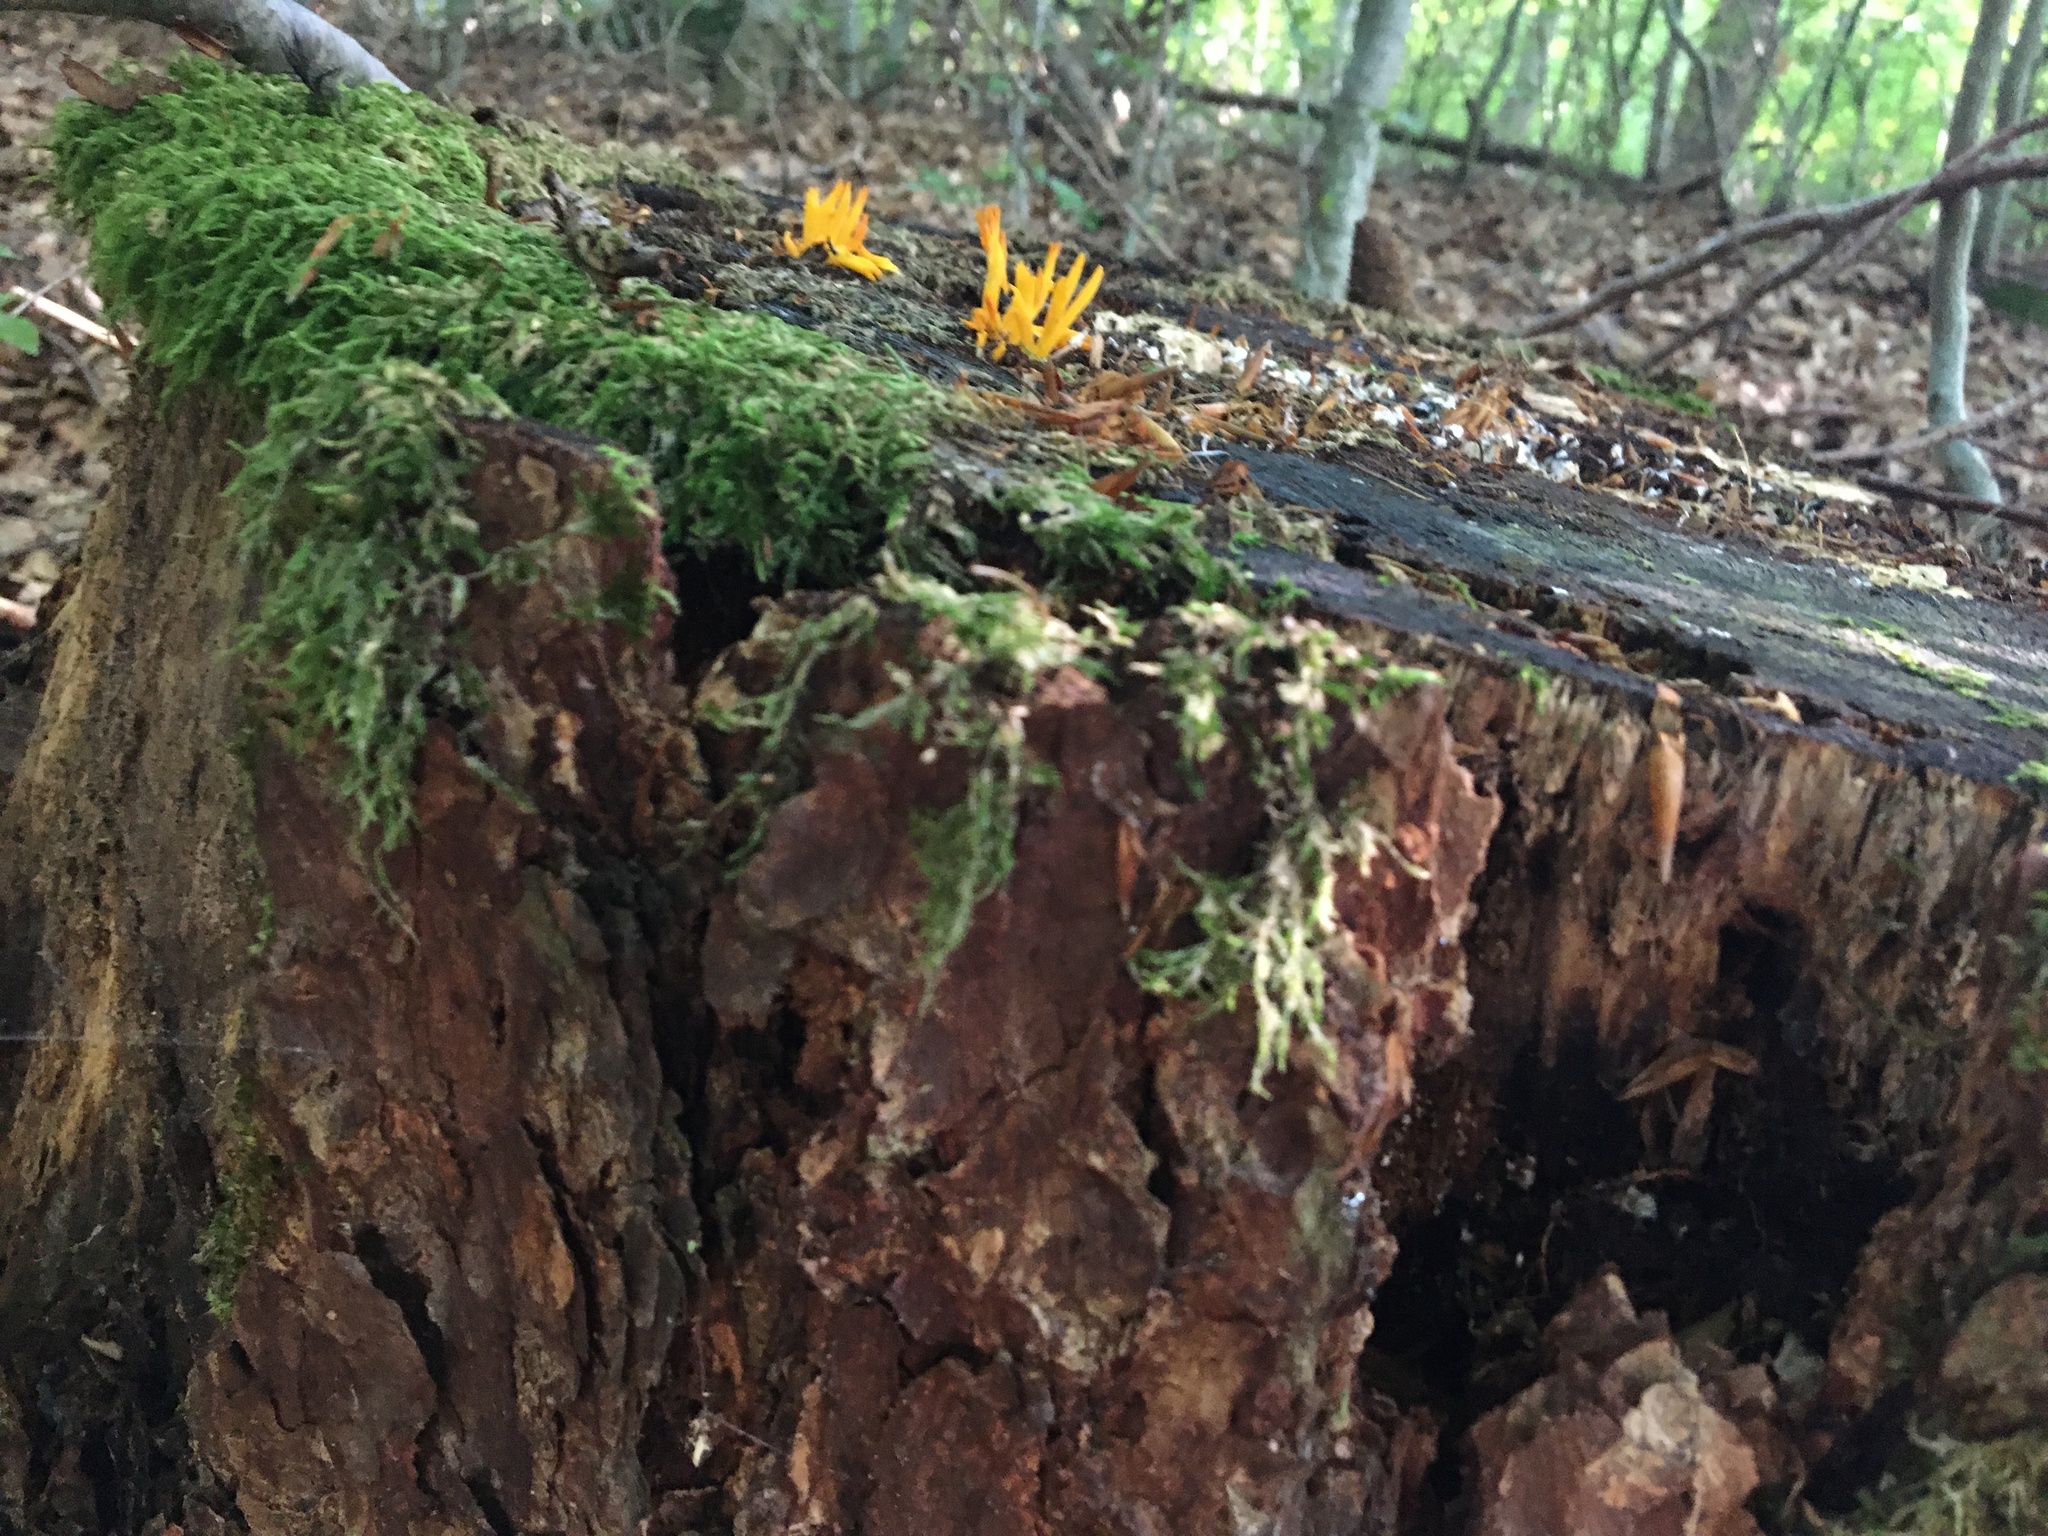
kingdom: Fungi
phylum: Basidiomycota
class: Dacrymycetes
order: Dacrymycetales
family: Dacrymycetaceae
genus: Calocera
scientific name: Calocera viscosa
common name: Yellow stagshorn
